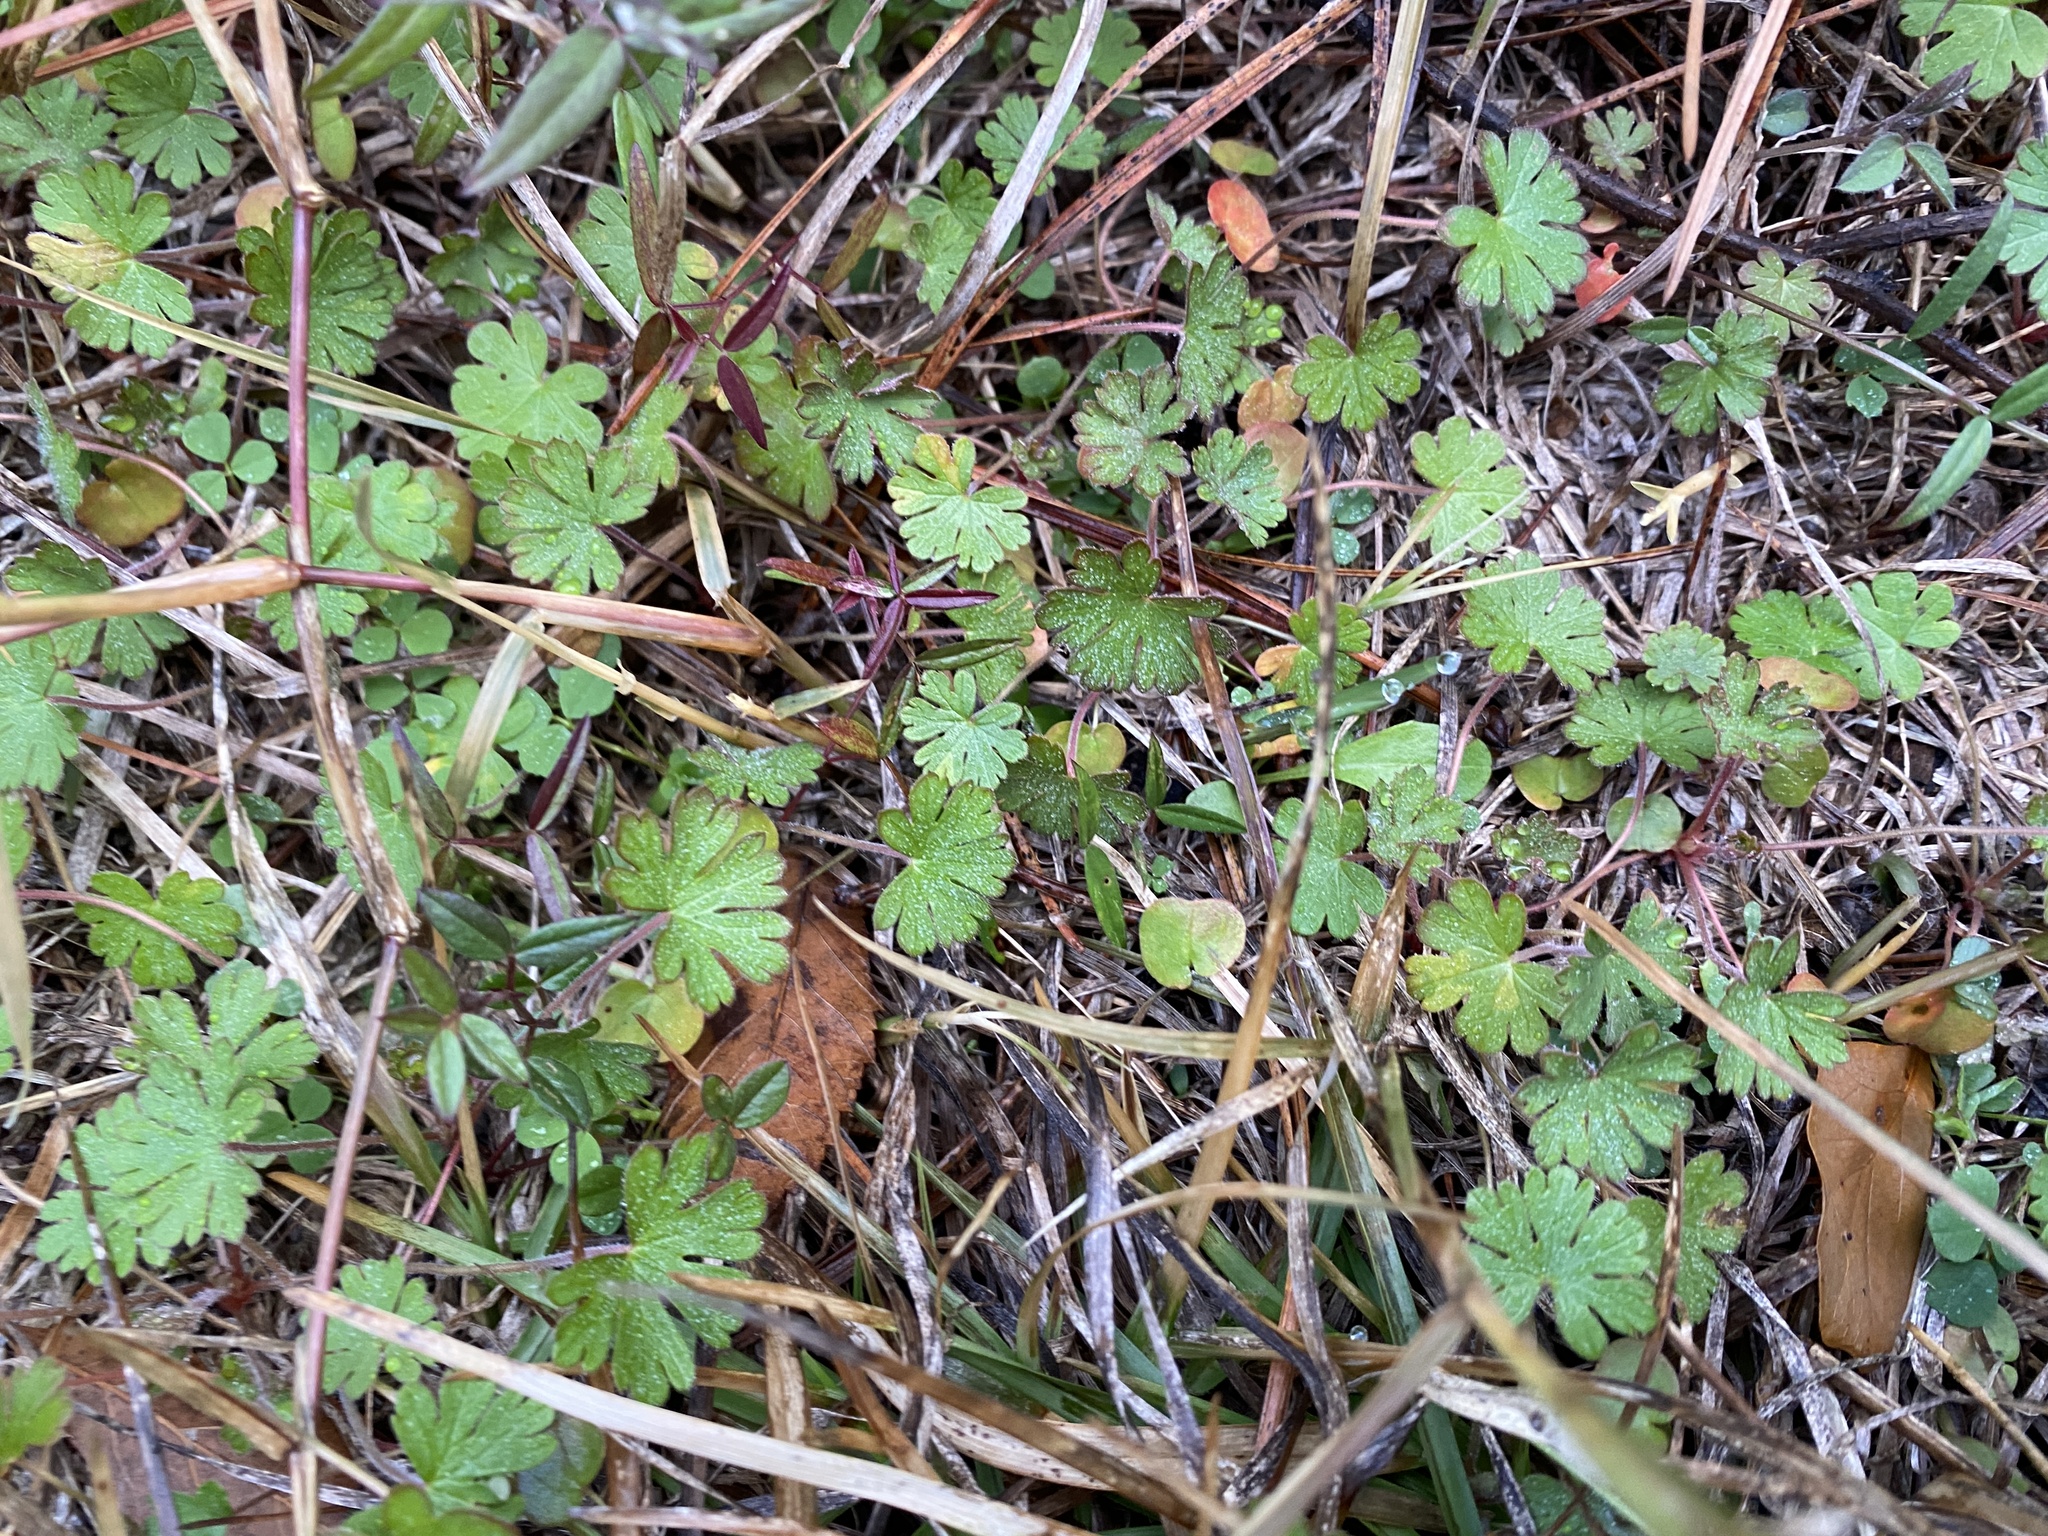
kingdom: Plantae
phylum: Tracheophyta
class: Magnoliopsida
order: Geraniales
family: Geraniaceae
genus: Geranium
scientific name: Geranium carolinianum
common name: Carolina crane's-bill
